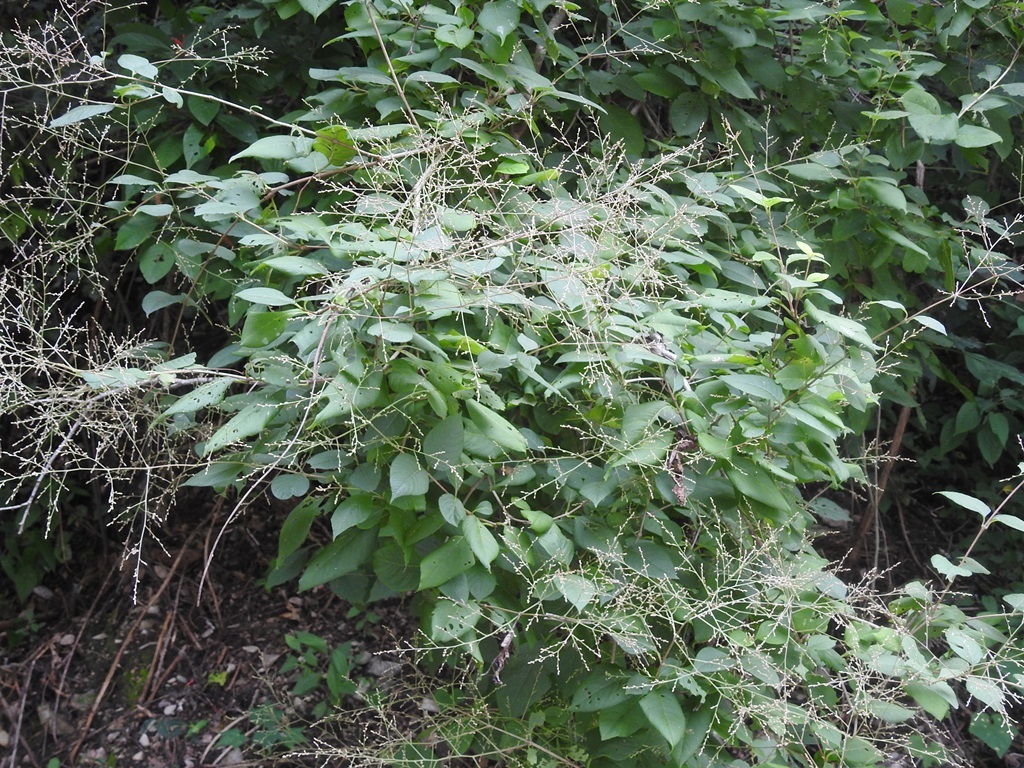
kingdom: Plantae
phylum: Tracheophyta
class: Magnoliopsida
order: Caryophyllales
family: Amaranthaceae
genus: Iresine
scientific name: Iresine interrupta
